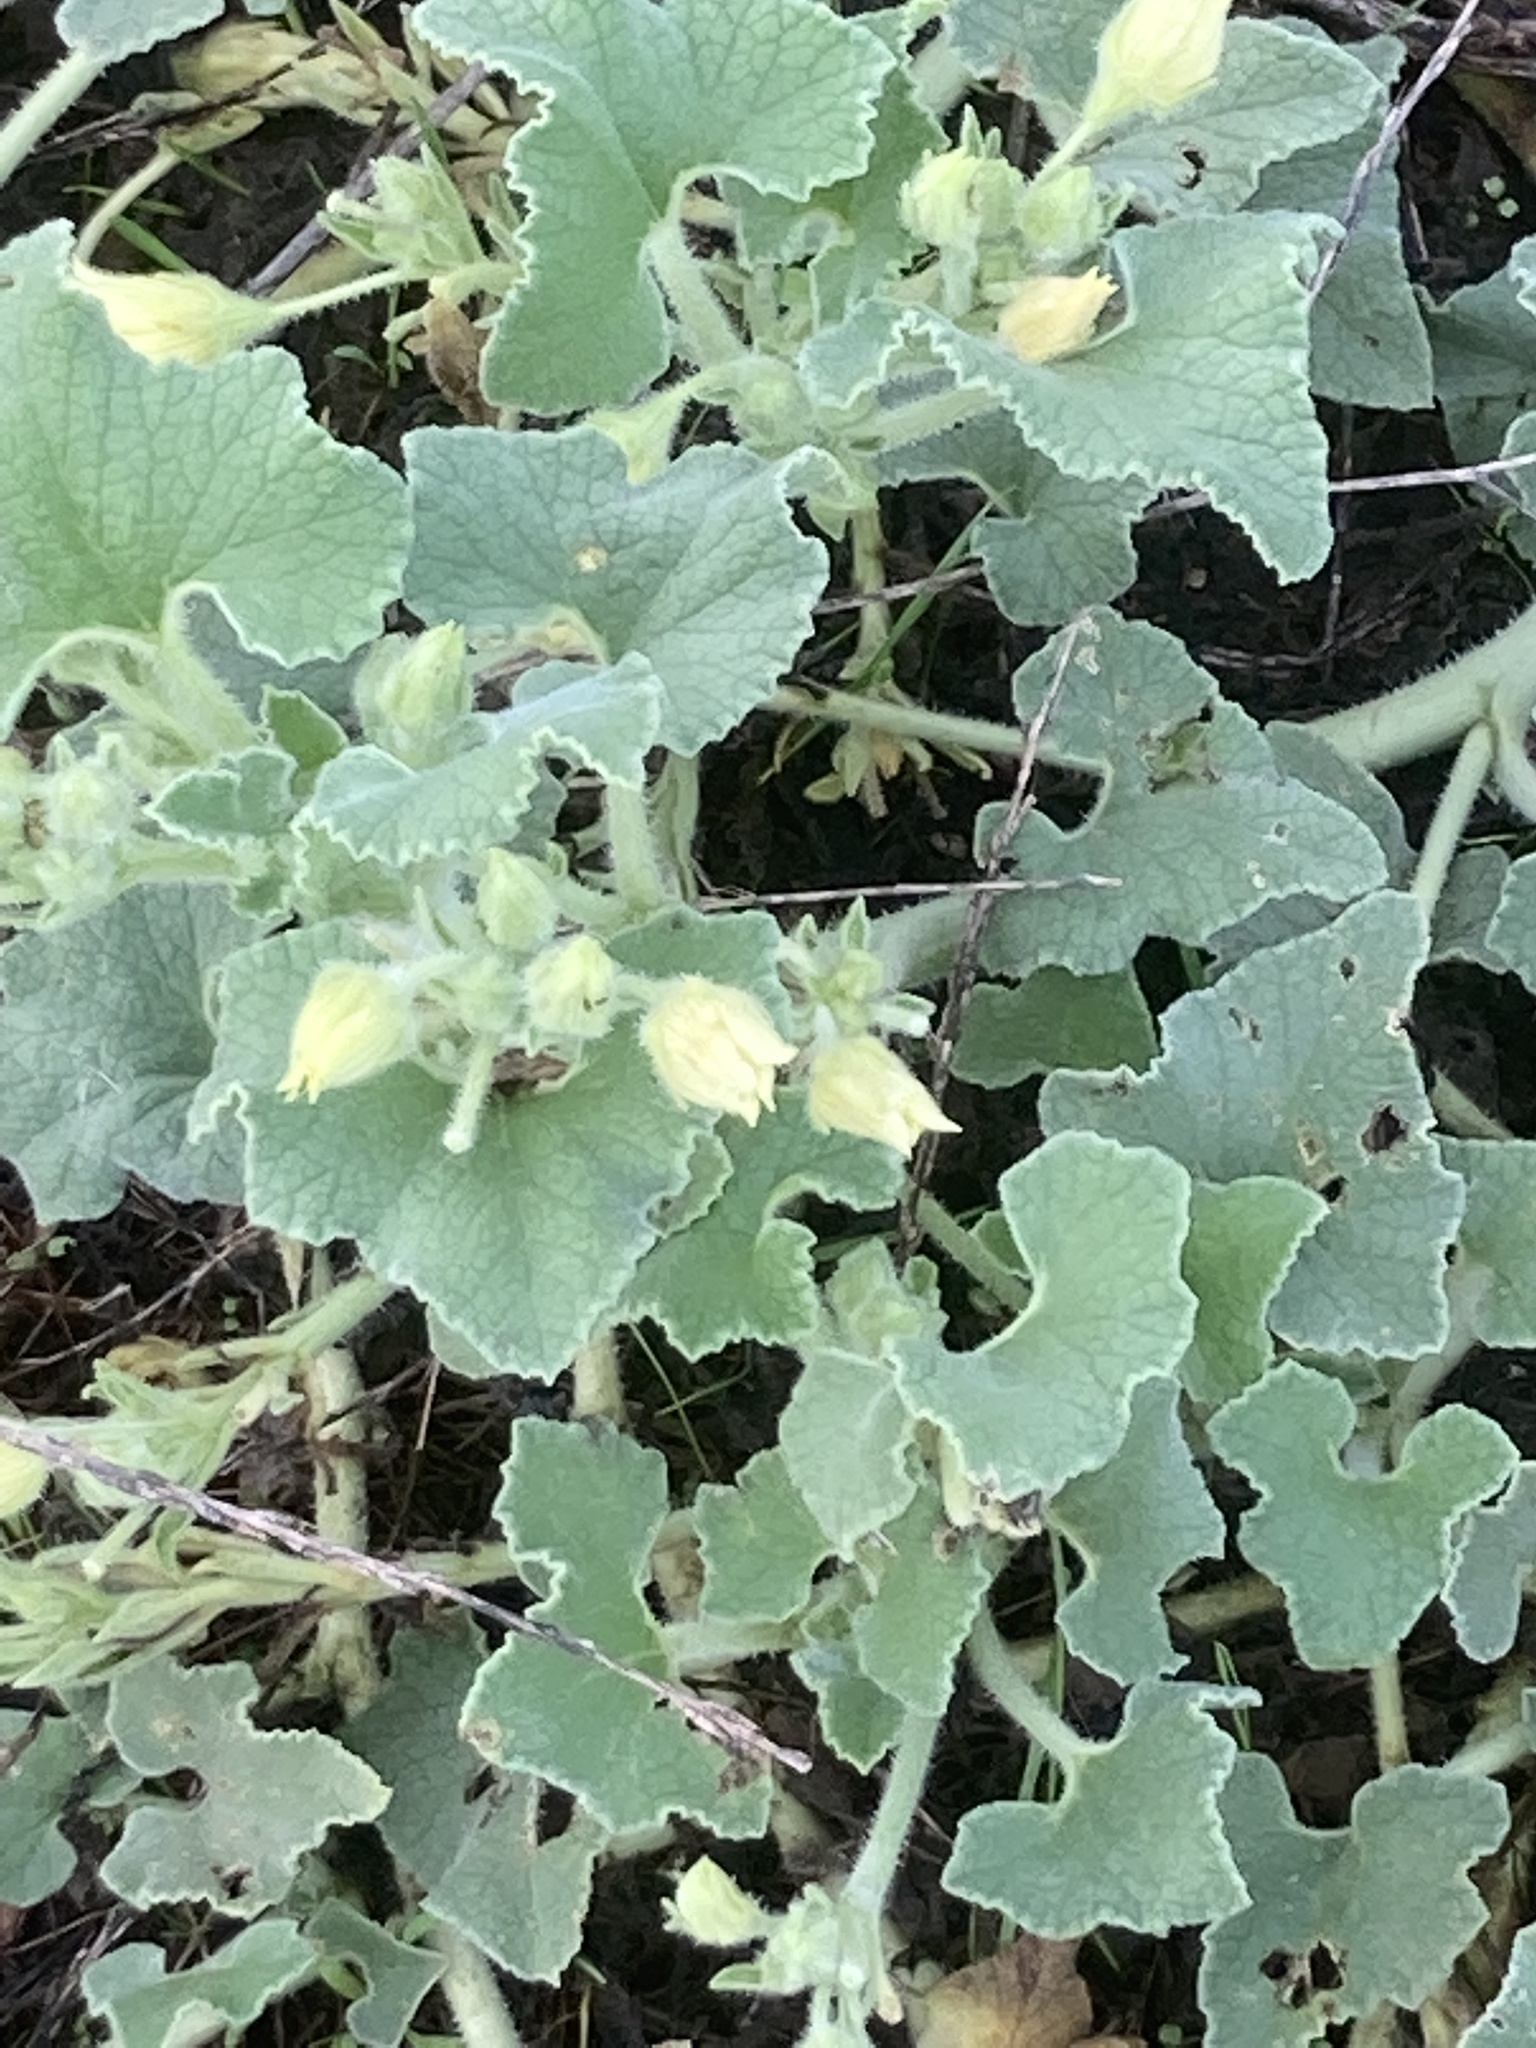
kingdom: Plantae
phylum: Tracheophyta
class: Magnoliopsida
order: Cucurbitales
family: Cucurbitaceae
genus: Ecballium
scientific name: Ecballium elaterium
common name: Squirting cucumber
